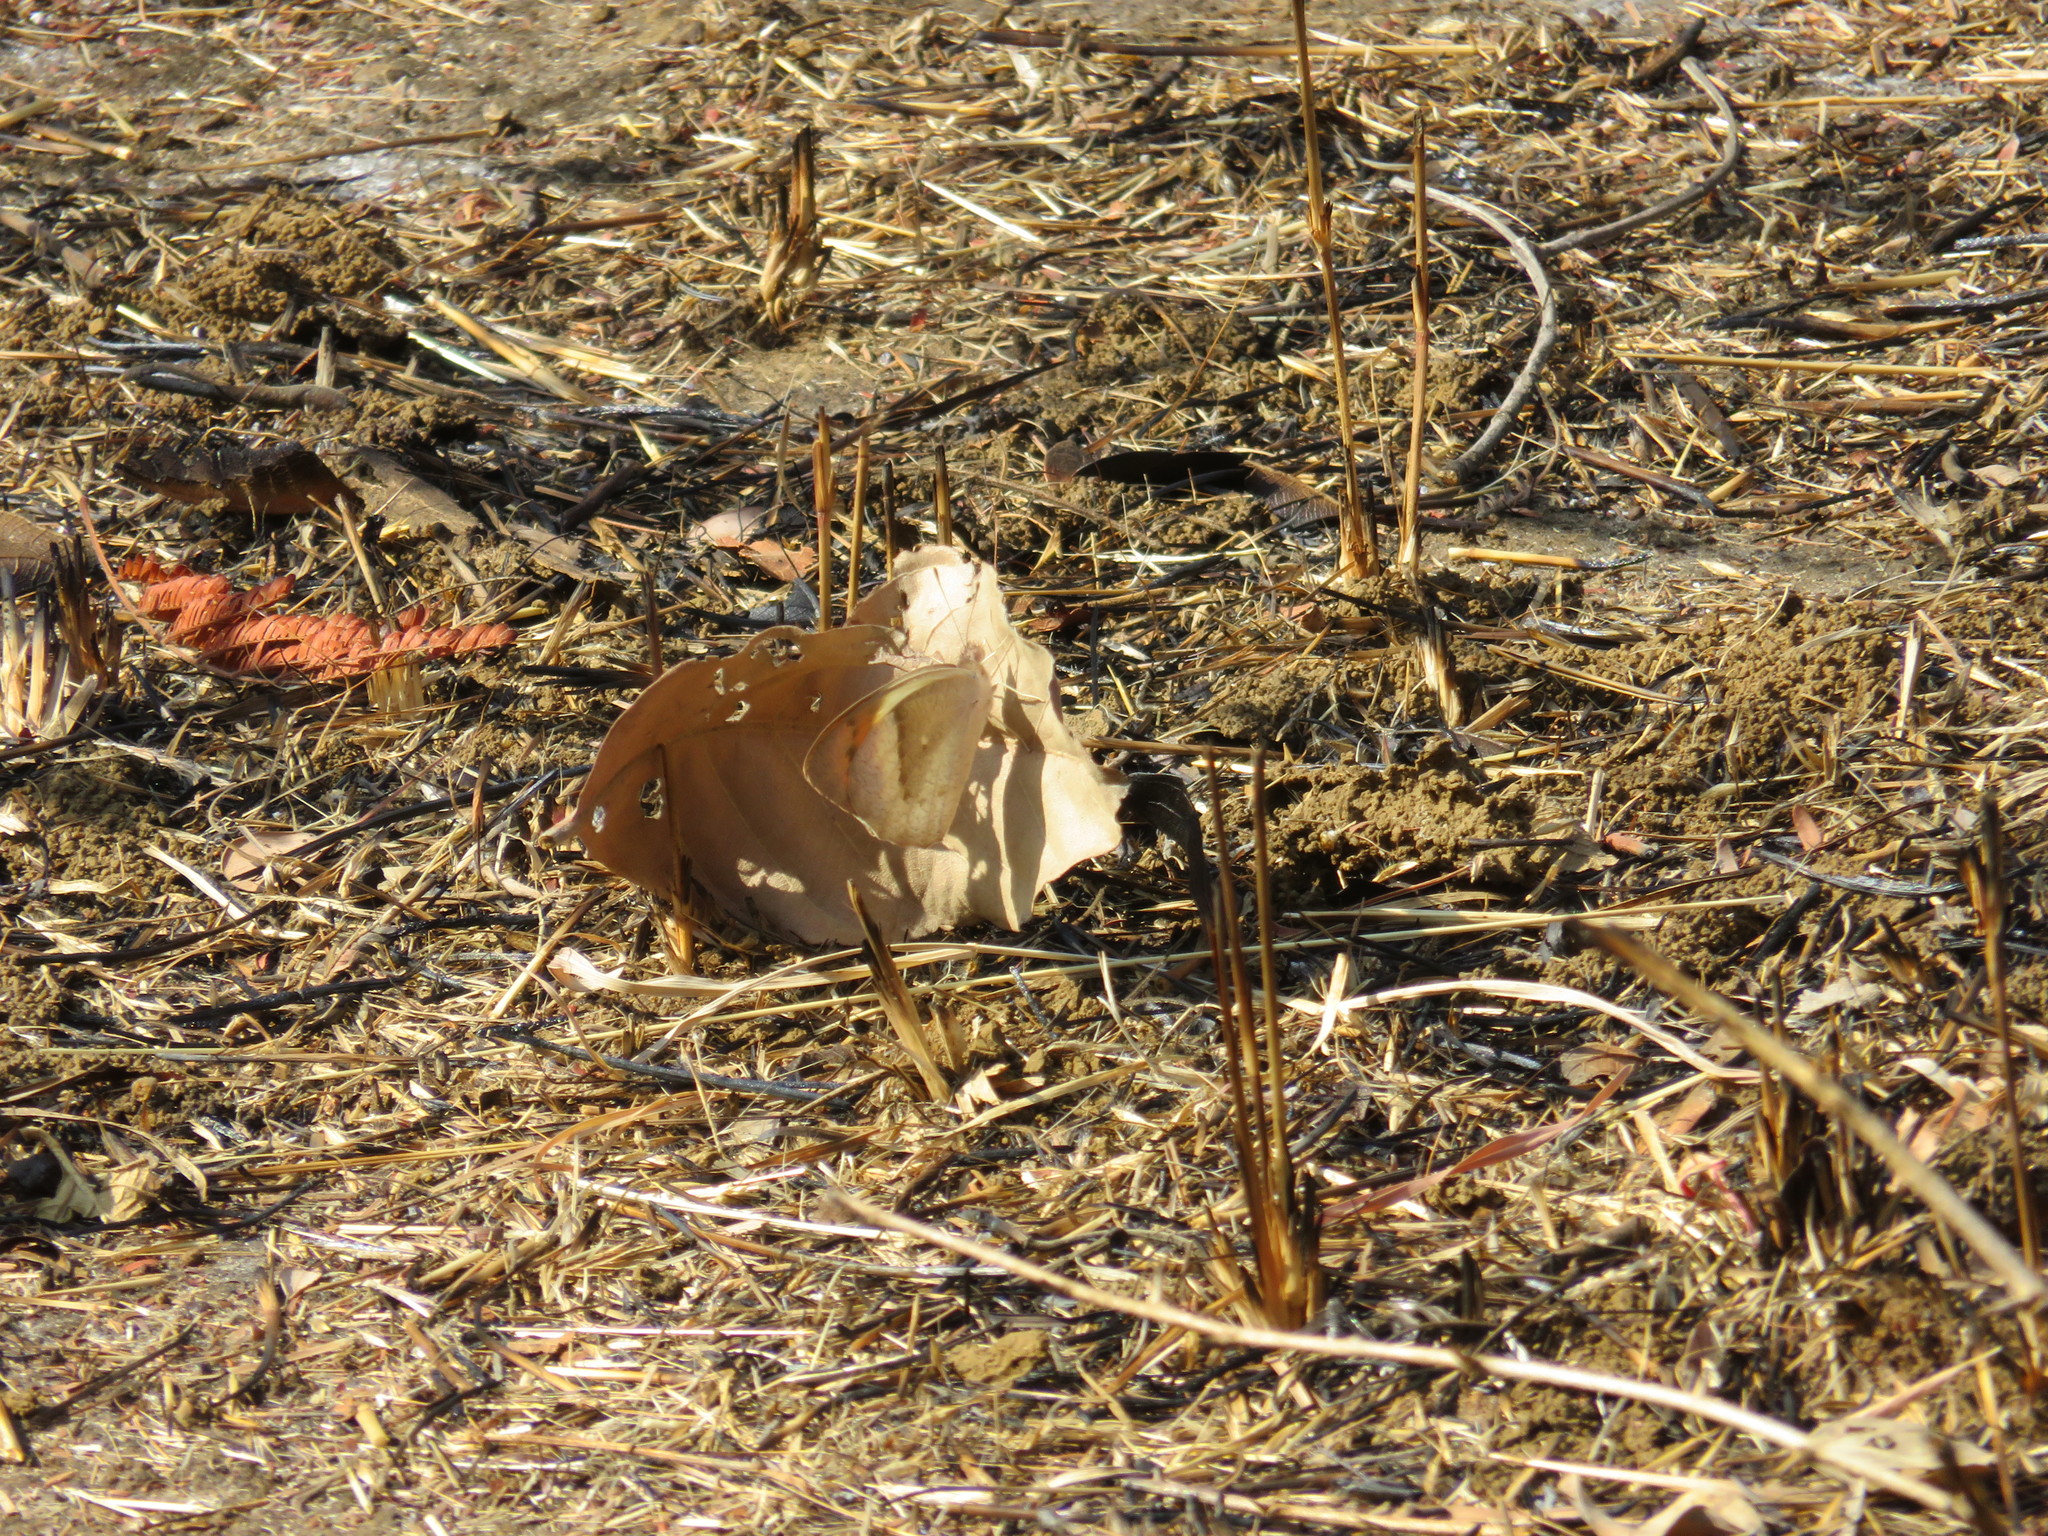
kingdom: Animalia
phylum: Arthropoda
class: Insecta
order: Lepidoptera
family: Pieridae
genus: Colotis
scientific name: Colotis ione
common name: Bushveld purple tip
